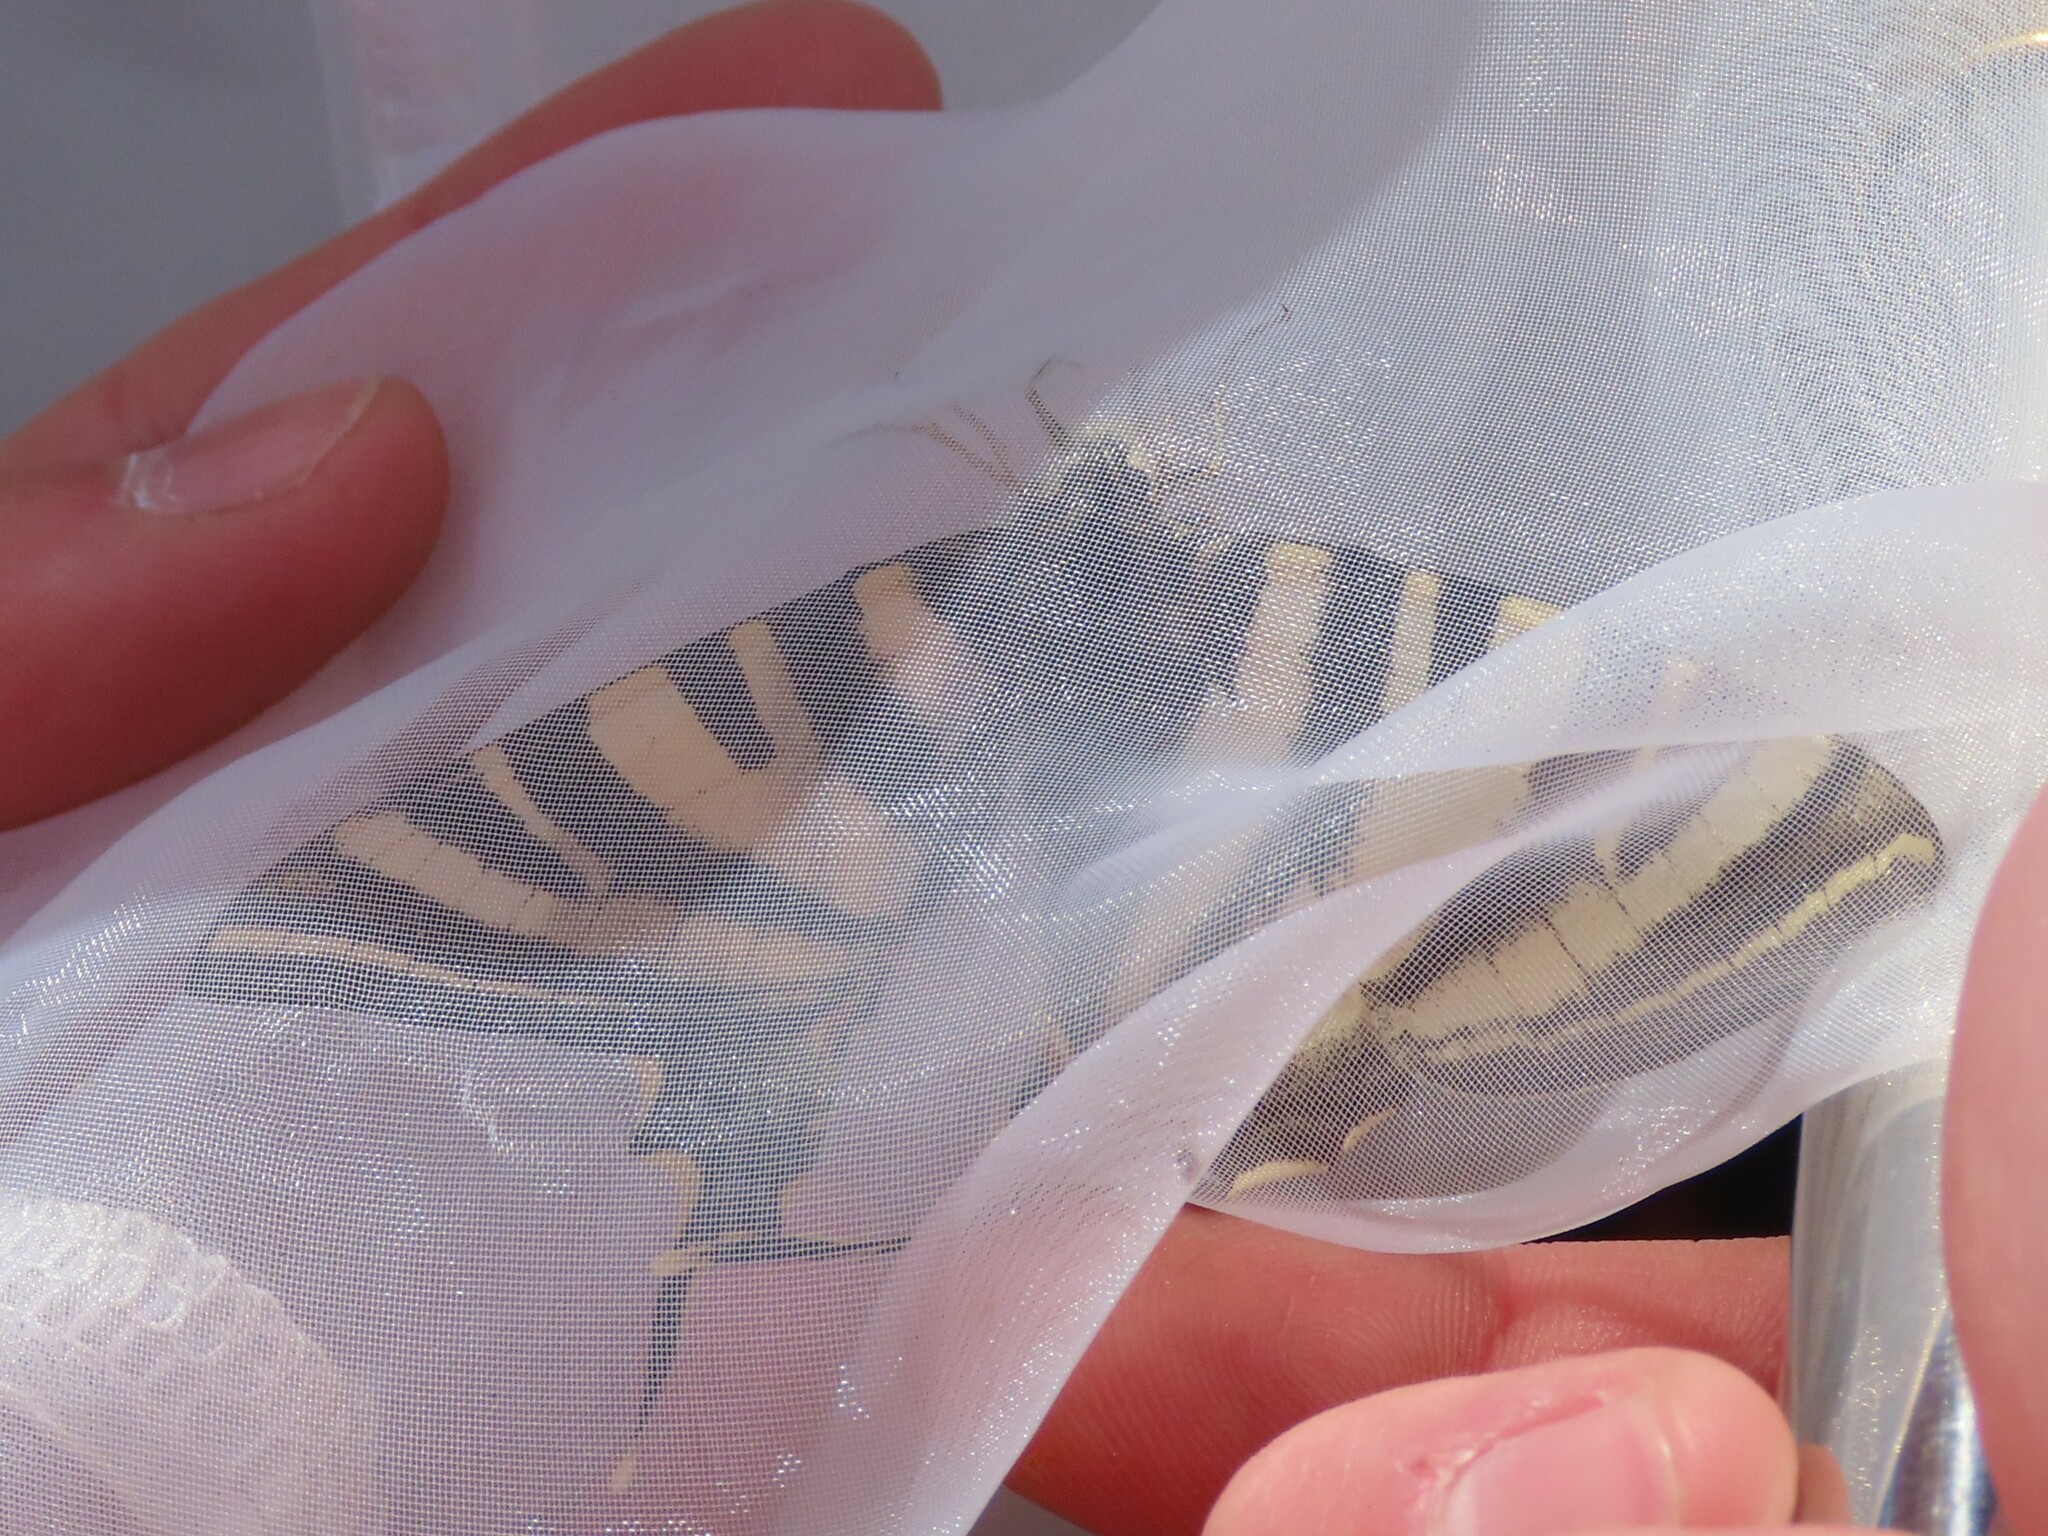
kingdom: Animalia
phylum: Arthropoda
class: Insecta
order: Lepidoptera
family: Papilionidae
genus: Iphiclides
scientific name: Iphiclides feisthamelii
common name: Iberian scarce swallowtail
